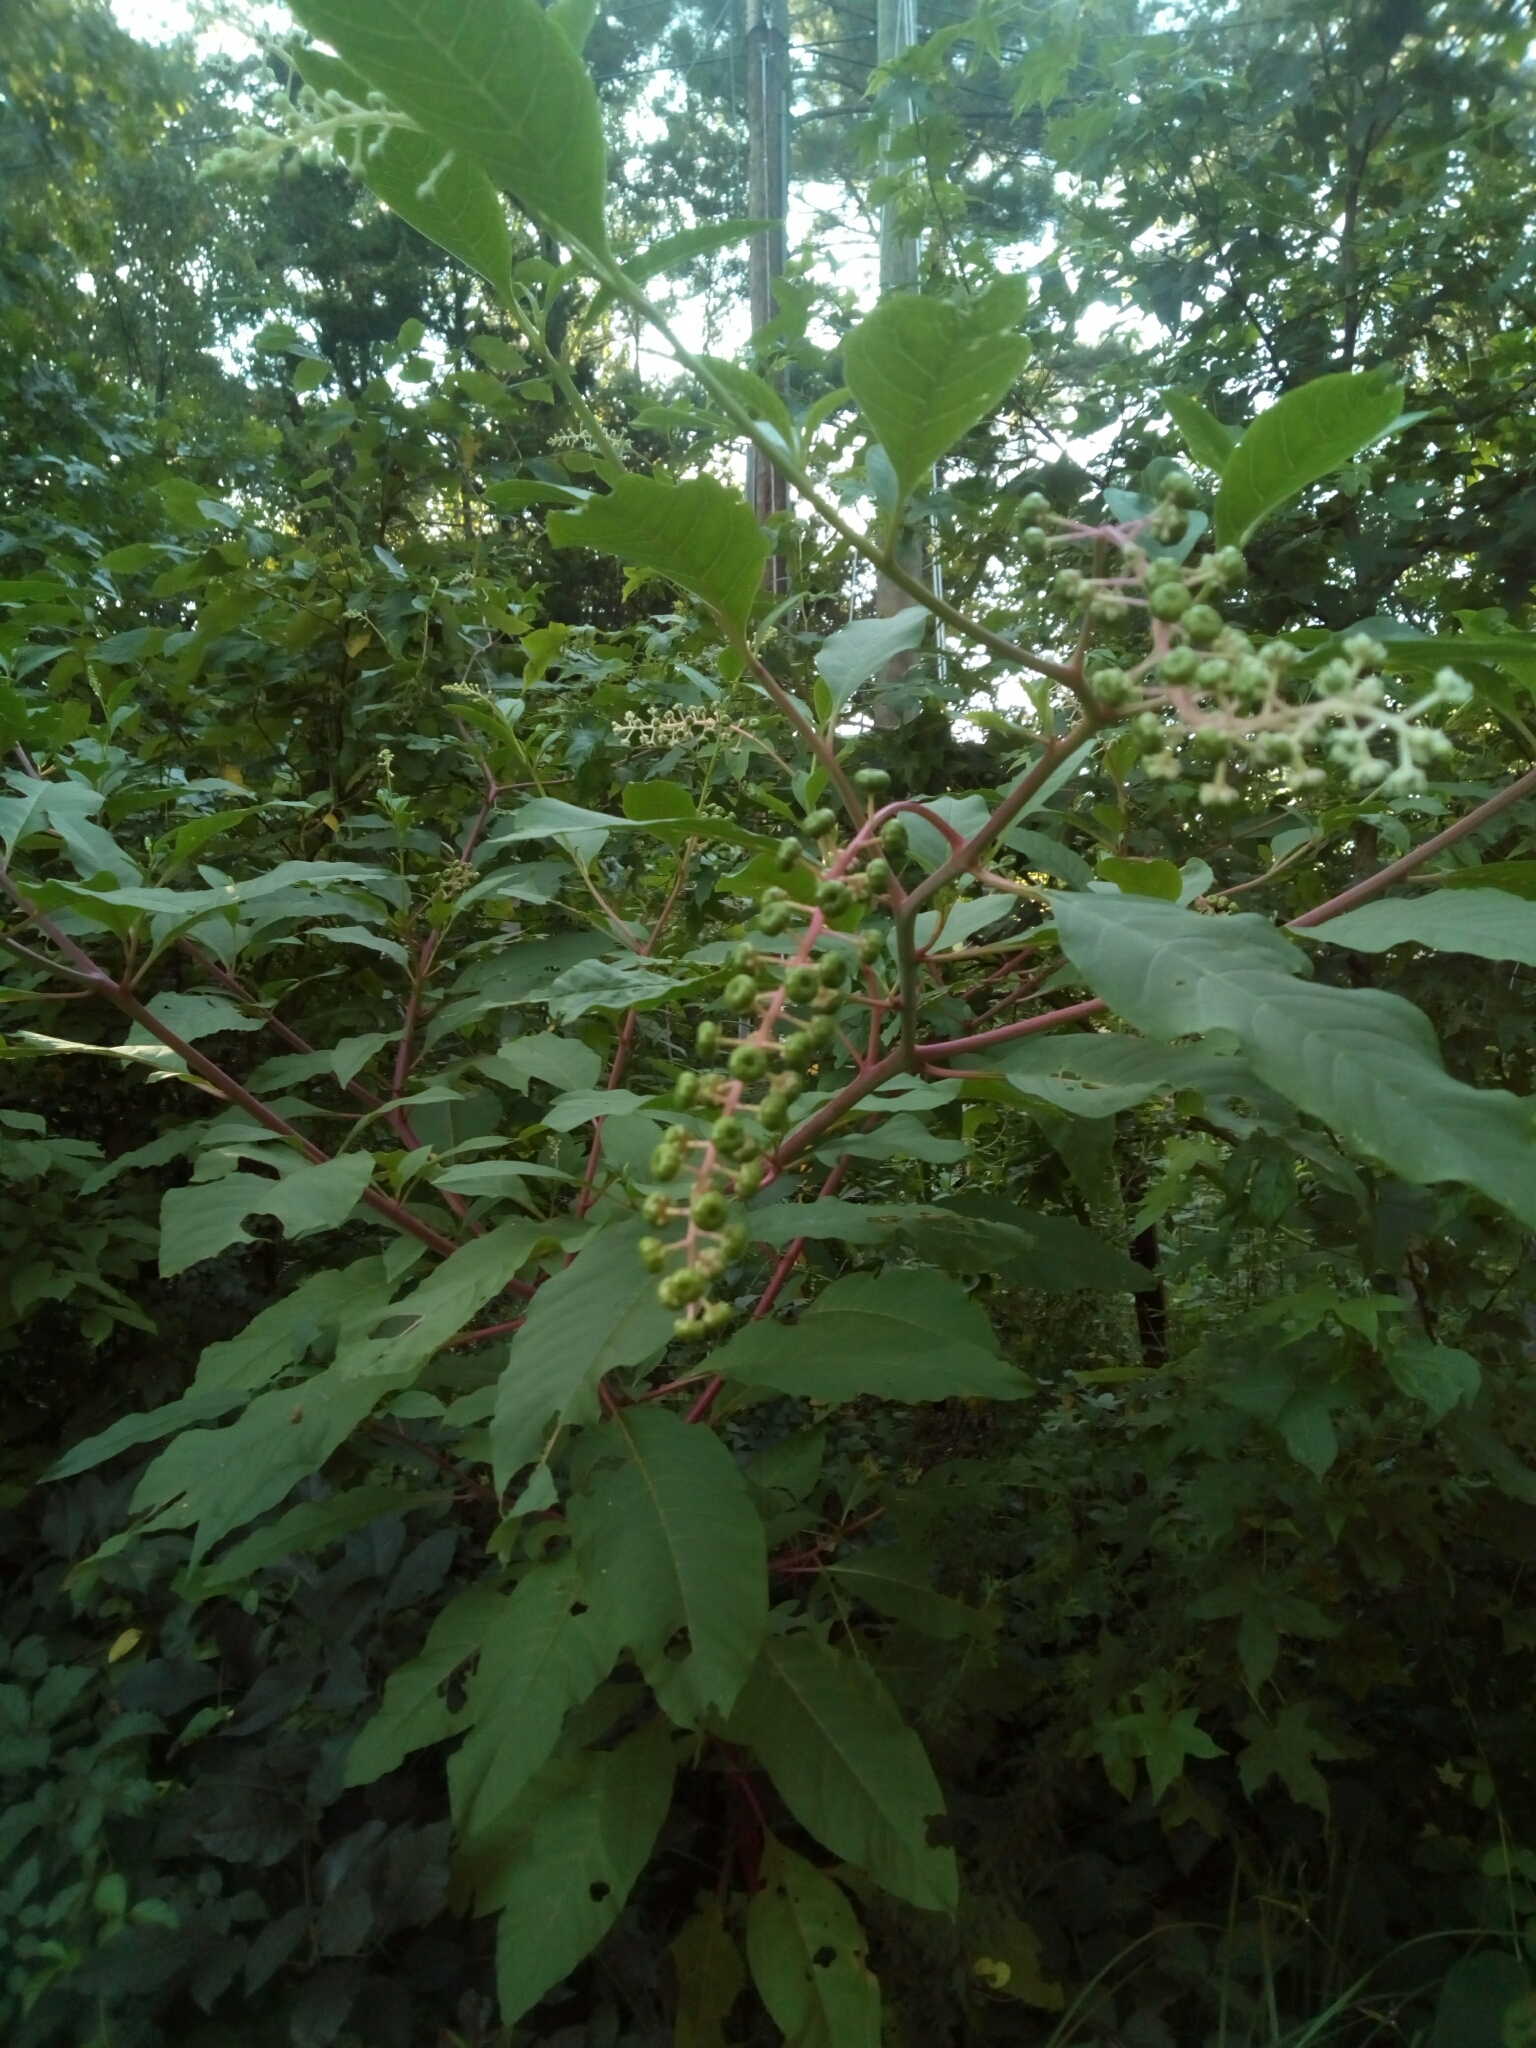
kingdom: Plantae
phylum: Tracheophyta
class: Magnoliopsida
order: Caryophyllales
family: Phytolaccaceae
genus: Phytolacca
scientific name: Phytolacca americana
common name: American pokeweed
